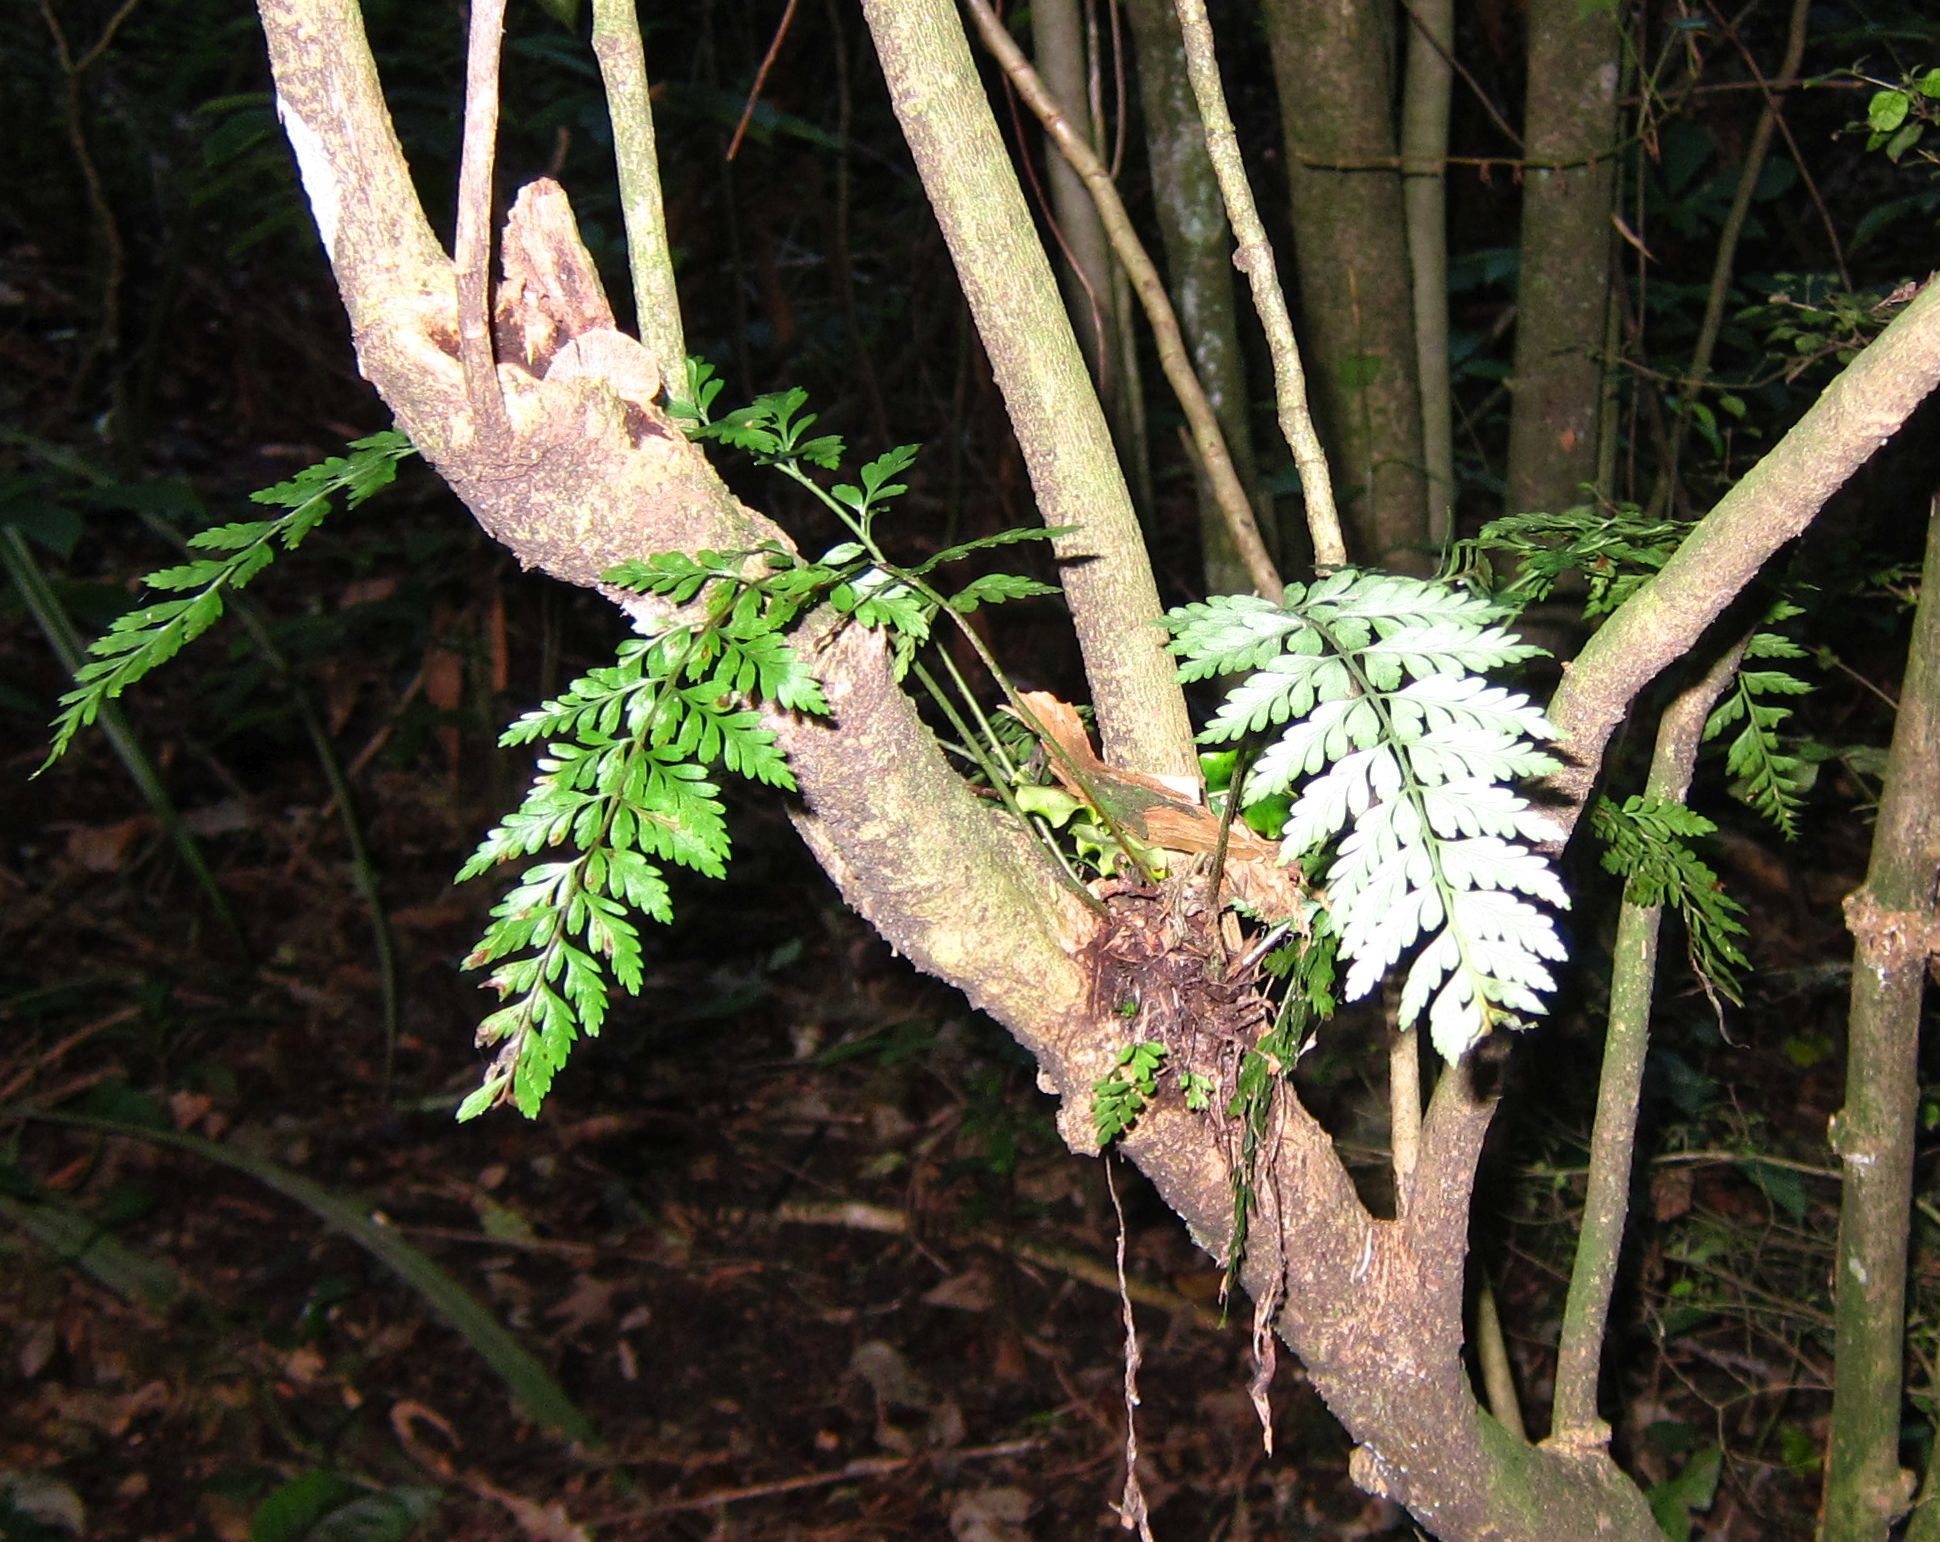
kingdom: Plantae
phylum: Tracheophyta
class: Polypodiopsida
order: Polypodiales
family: Aspleniaceae
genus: Asplenium
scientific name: Asplenium
